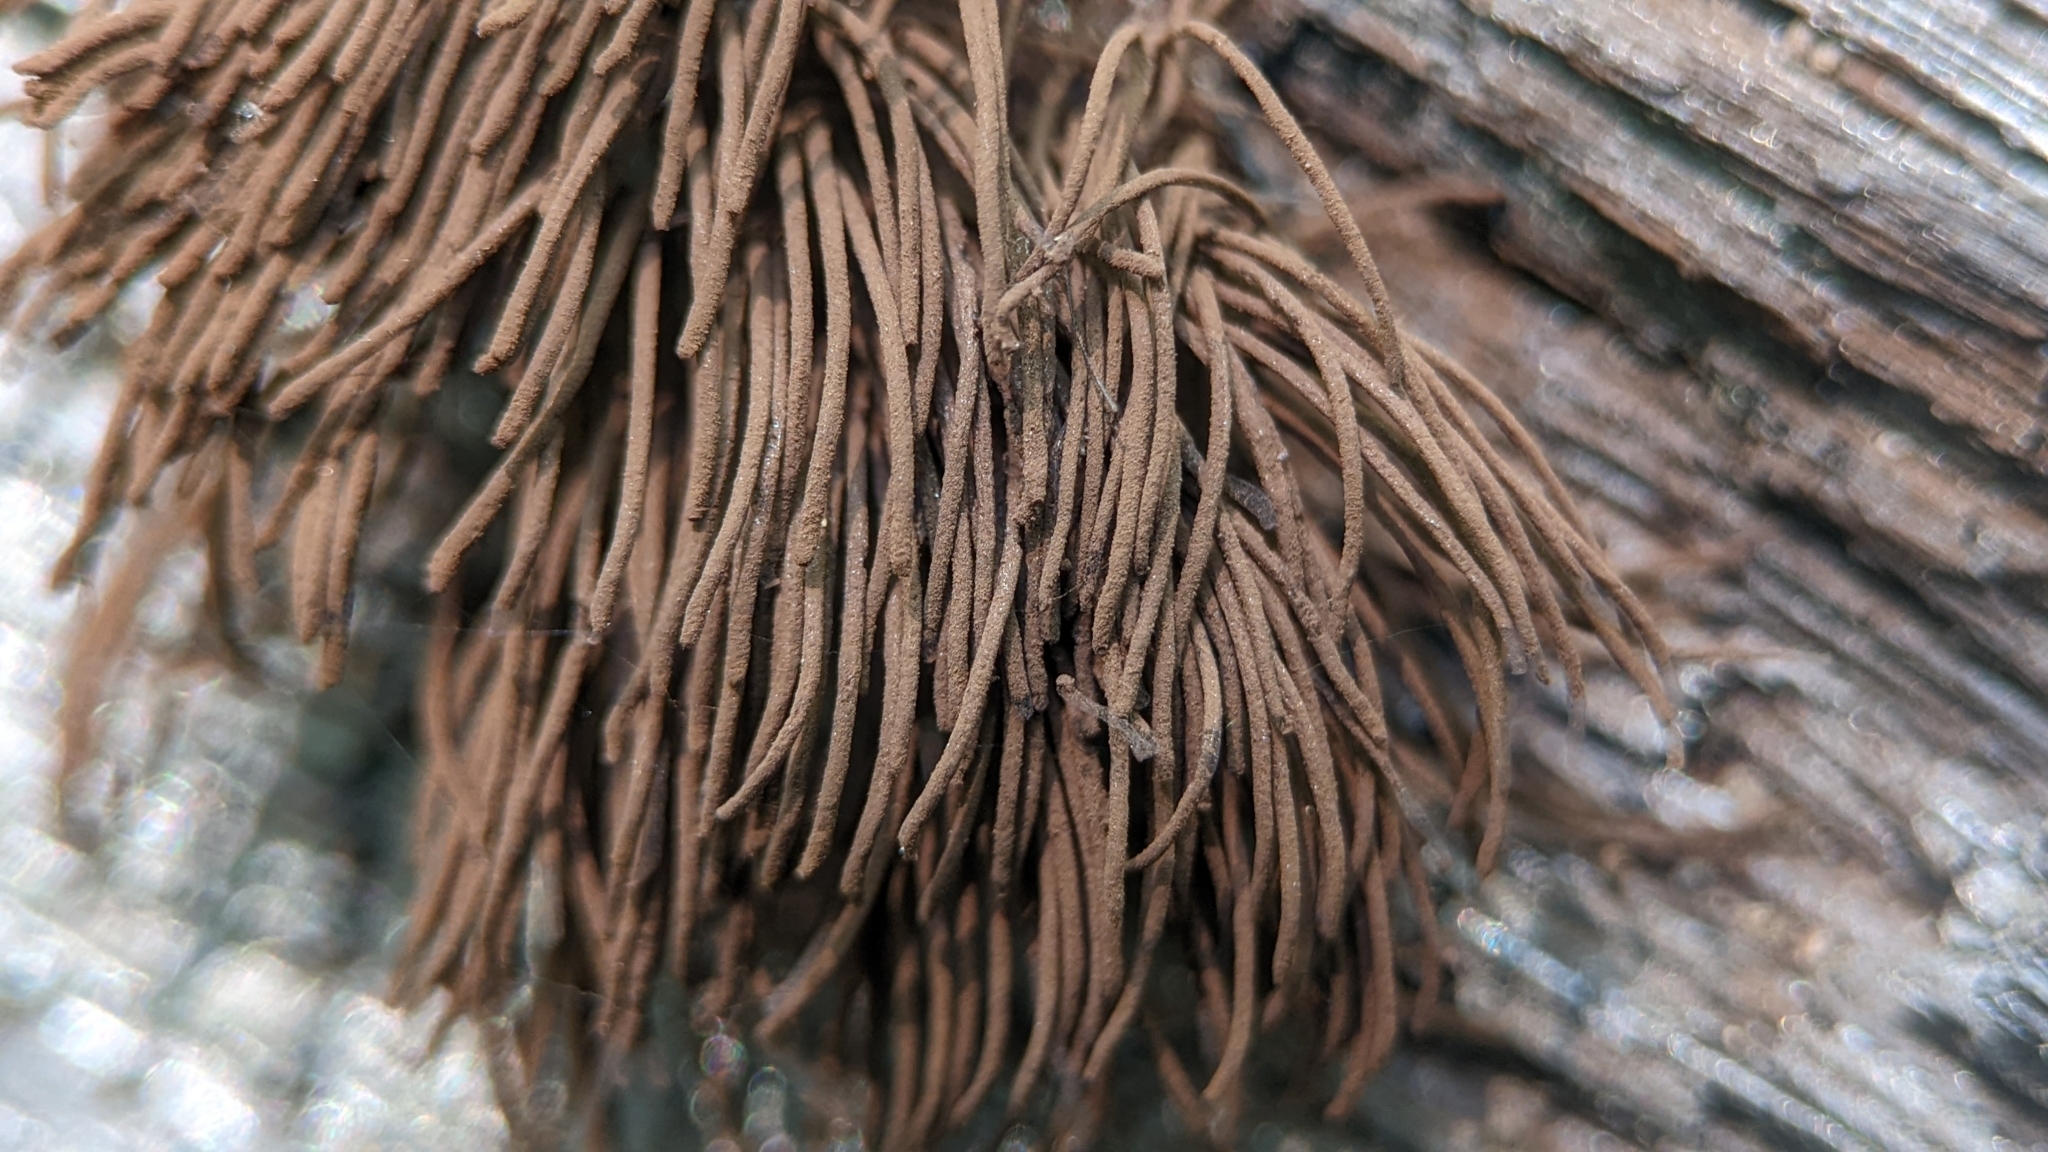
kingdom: Protozoa
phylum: Mycetozoa
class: Myxomycetes
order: Stemonitidales
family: Stemonitidaceae
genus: Stemonitis
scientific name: Stemonitis splendens
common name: Chocolate tube slime
